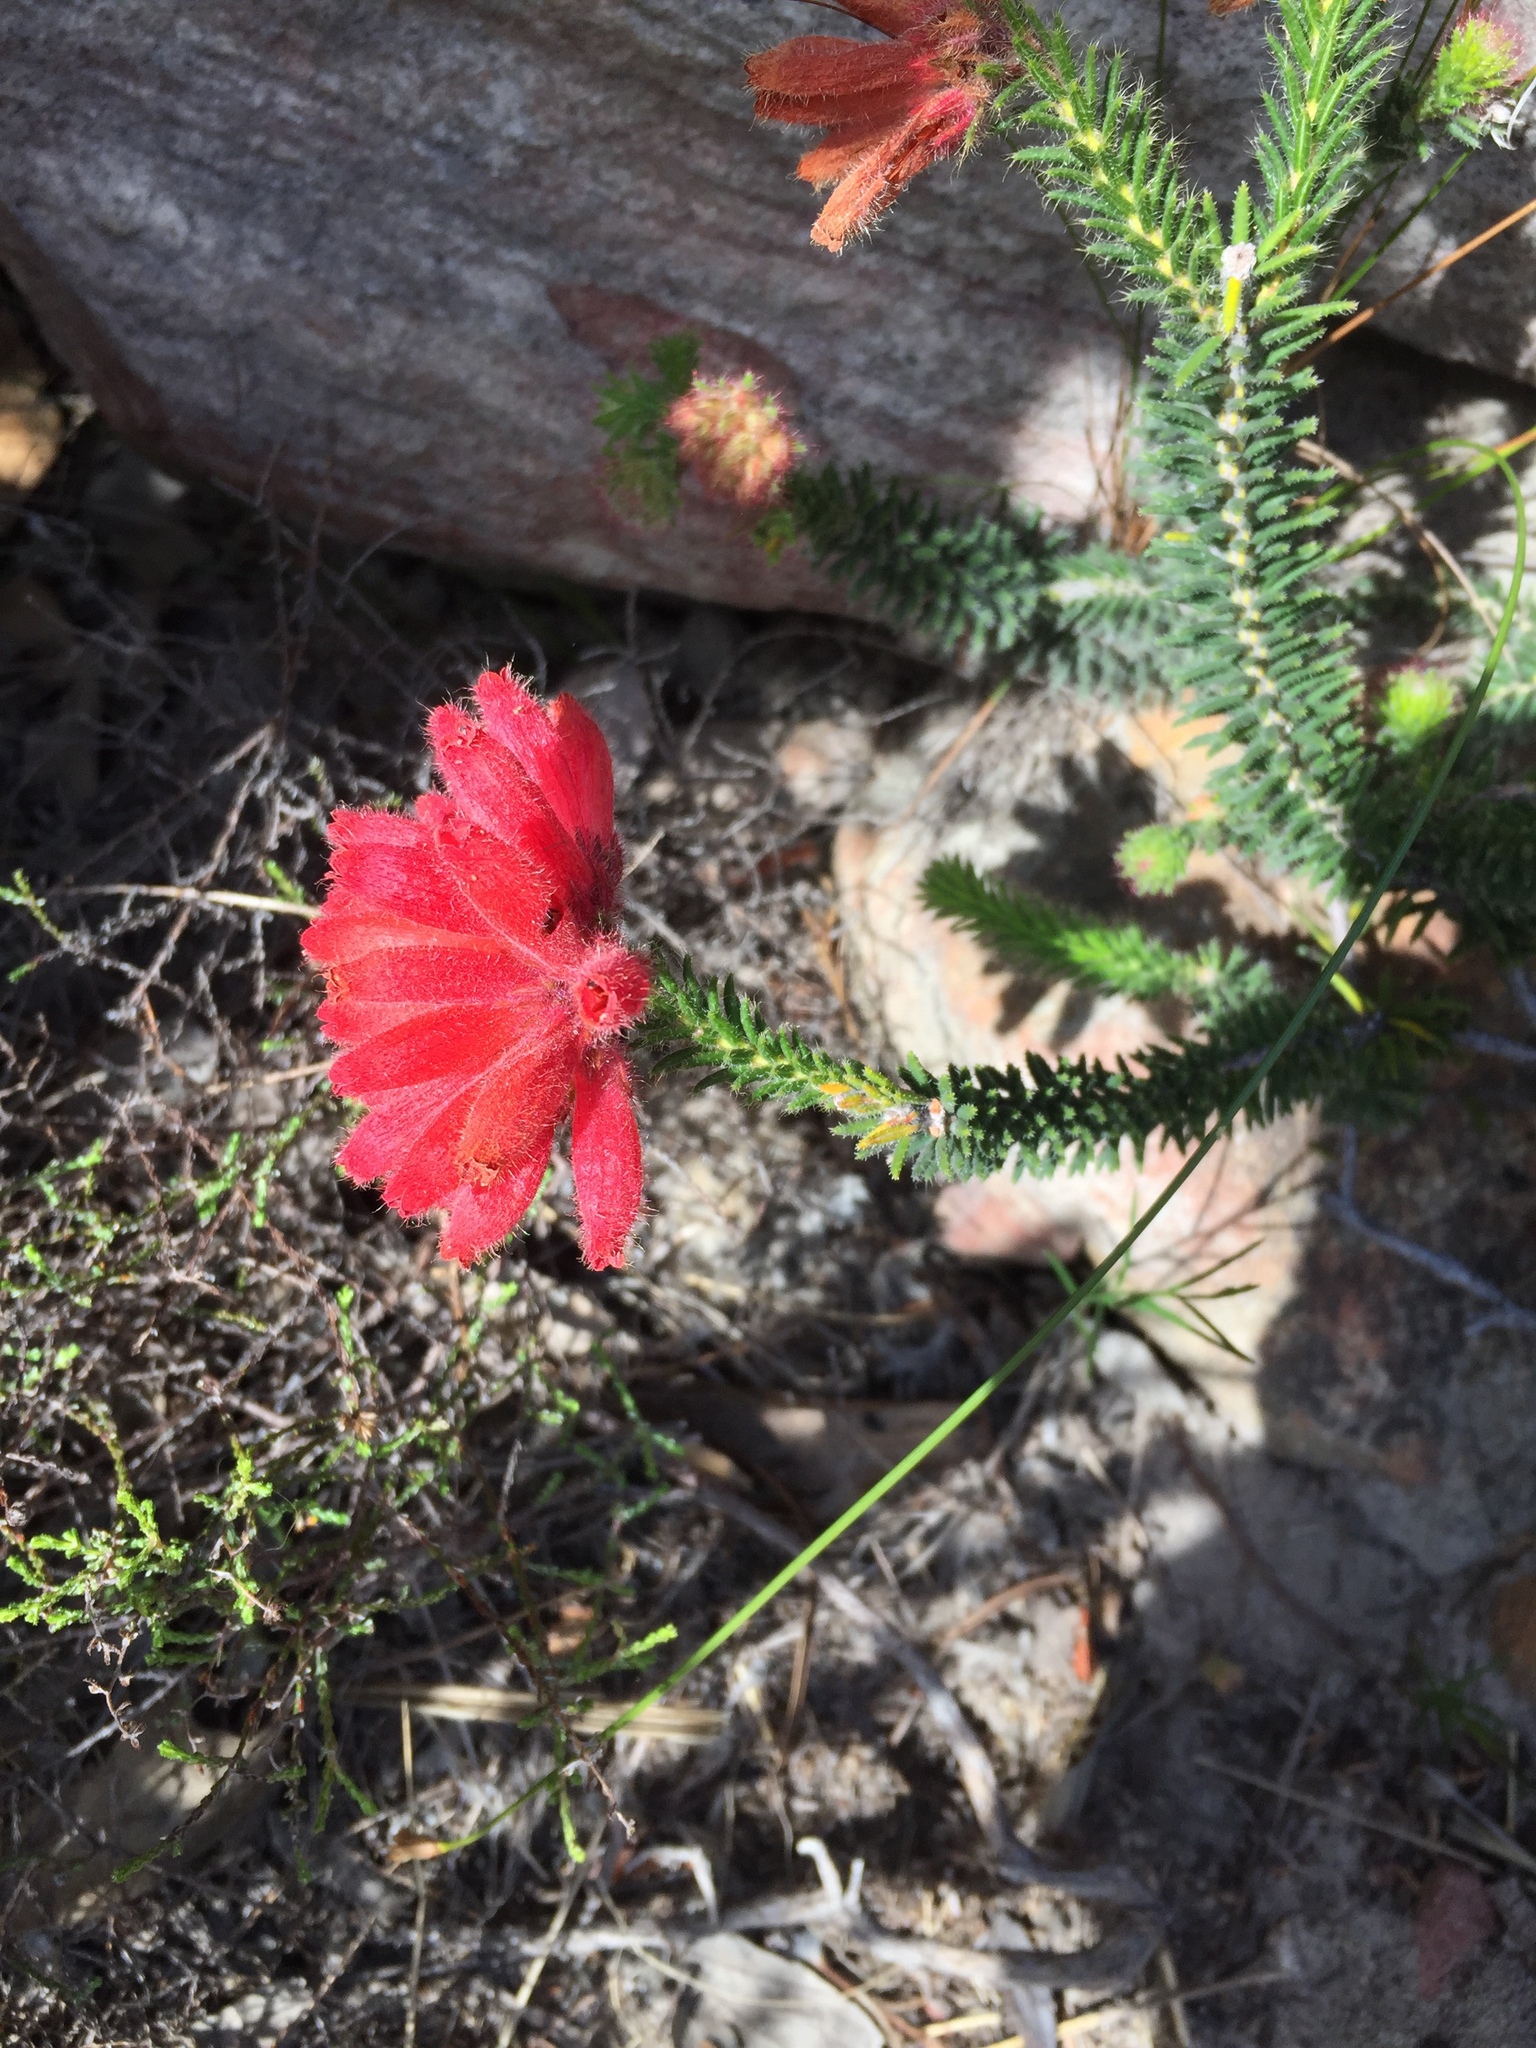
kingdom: Plantae
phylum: Tracheophyta
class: Magnoliopsida
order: Ericales
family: Ericaceae
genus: Erica
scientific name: Erica cerinthoides
